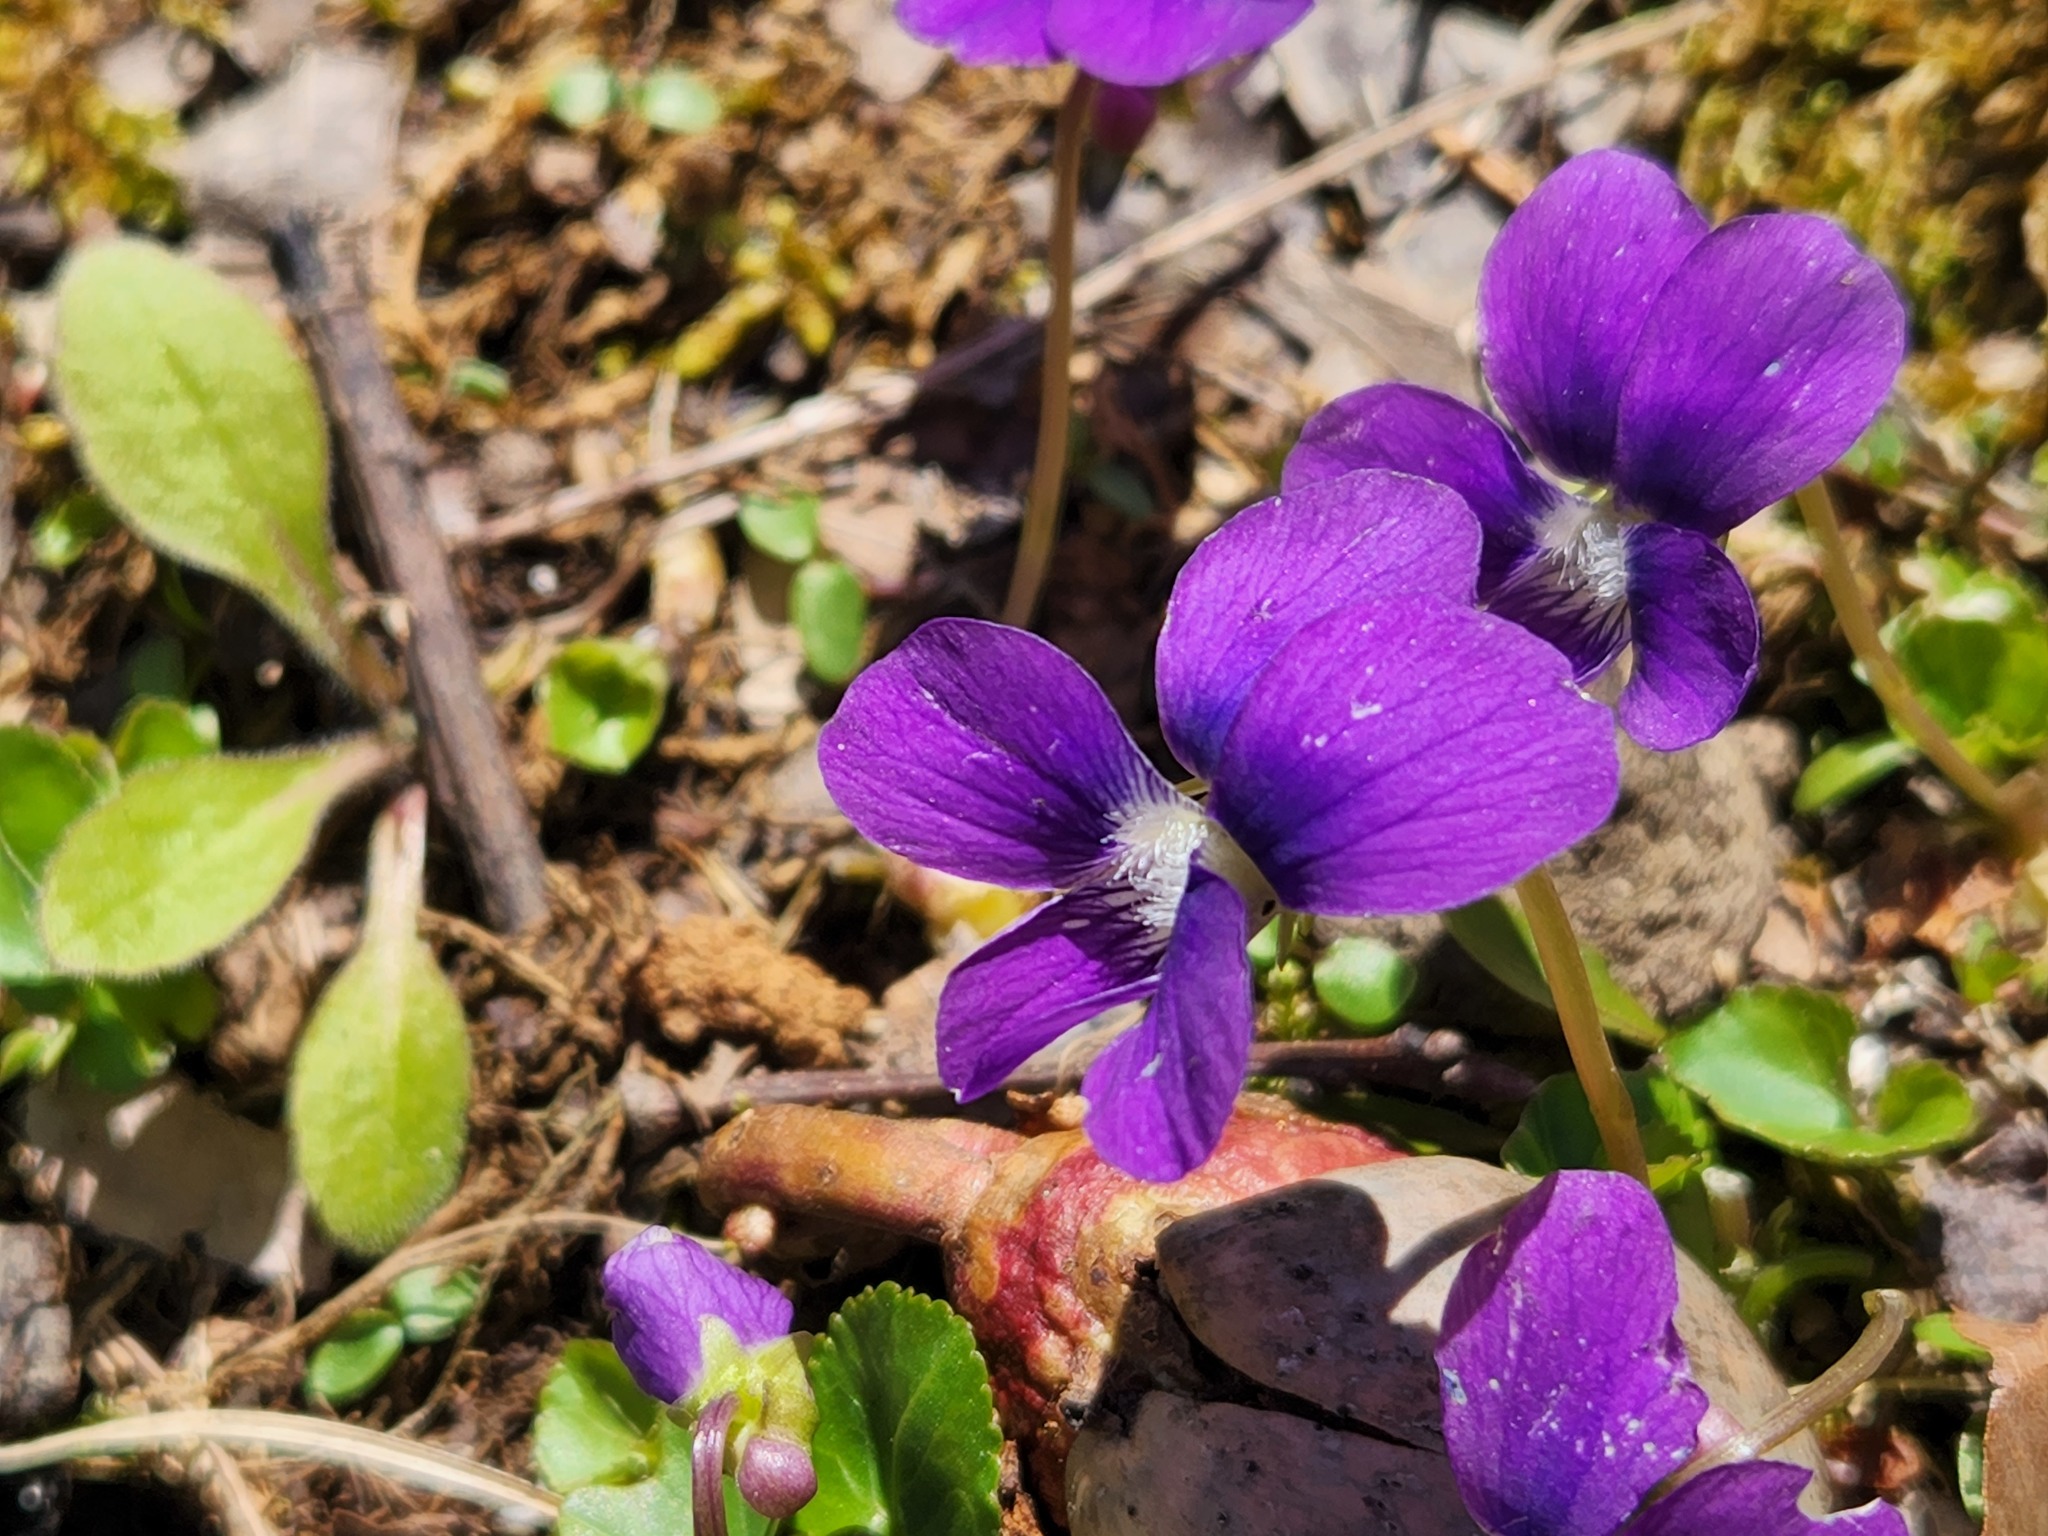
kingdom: Plantae
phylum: Tracheophyta
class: Magnoliopsida
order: Malpighiales
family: Violaceae
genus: Viola
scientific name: Viola sororia
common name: Dooryard violet
